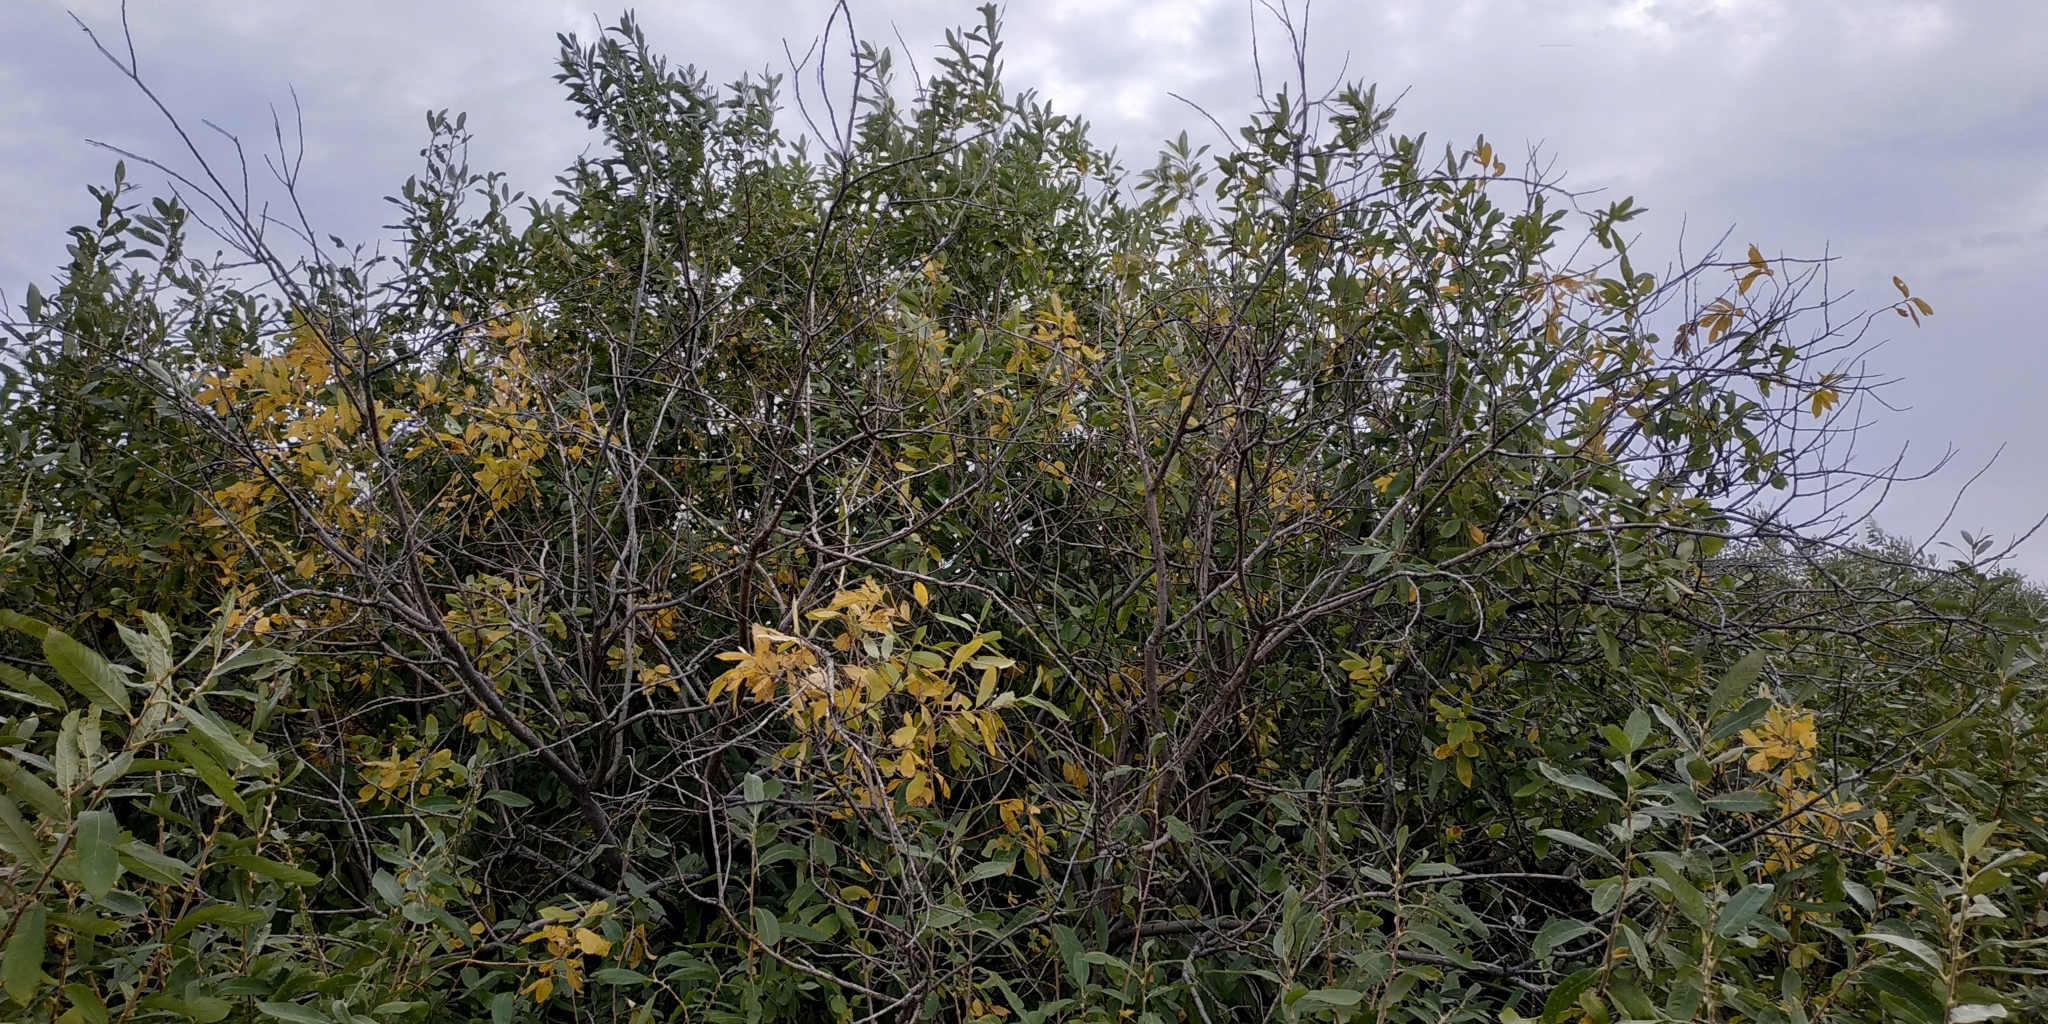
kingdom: Plantae
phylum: Tracheophyta
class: Magnoliopsida
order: Malpighiales
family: Salicaceae
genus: Salix
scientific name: Salix cinerea
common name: Common sallow
